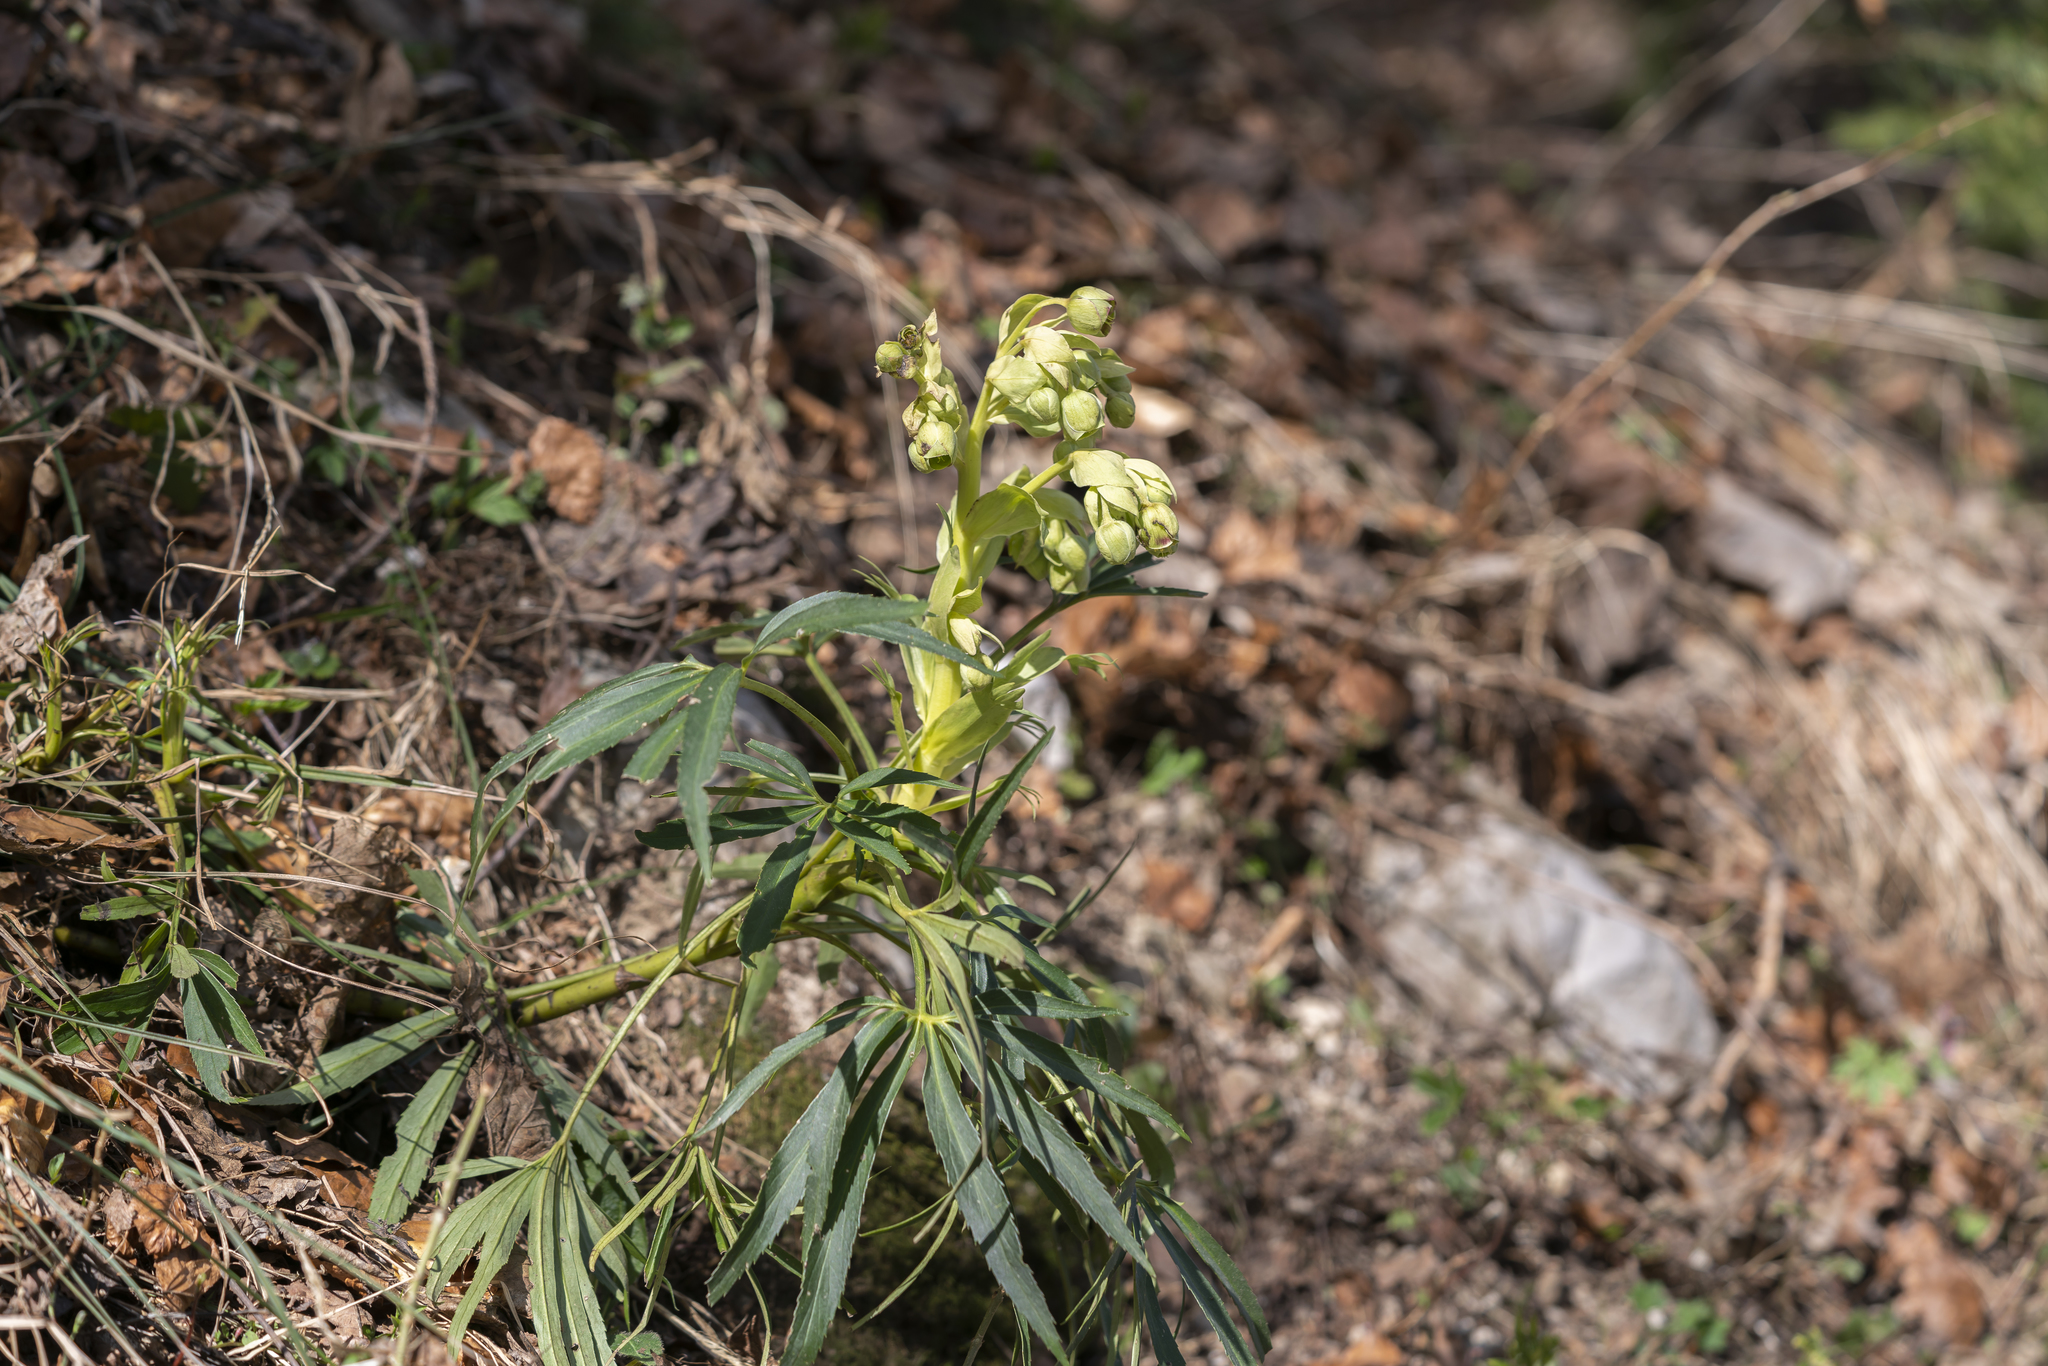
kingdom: Plantae
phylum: Tracheophyta
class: Magnoliopsida
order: Ranunculales
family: Ranunculaceae
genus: Helleborus
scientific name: Helleborus foetidus
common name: Stinking hellebore
